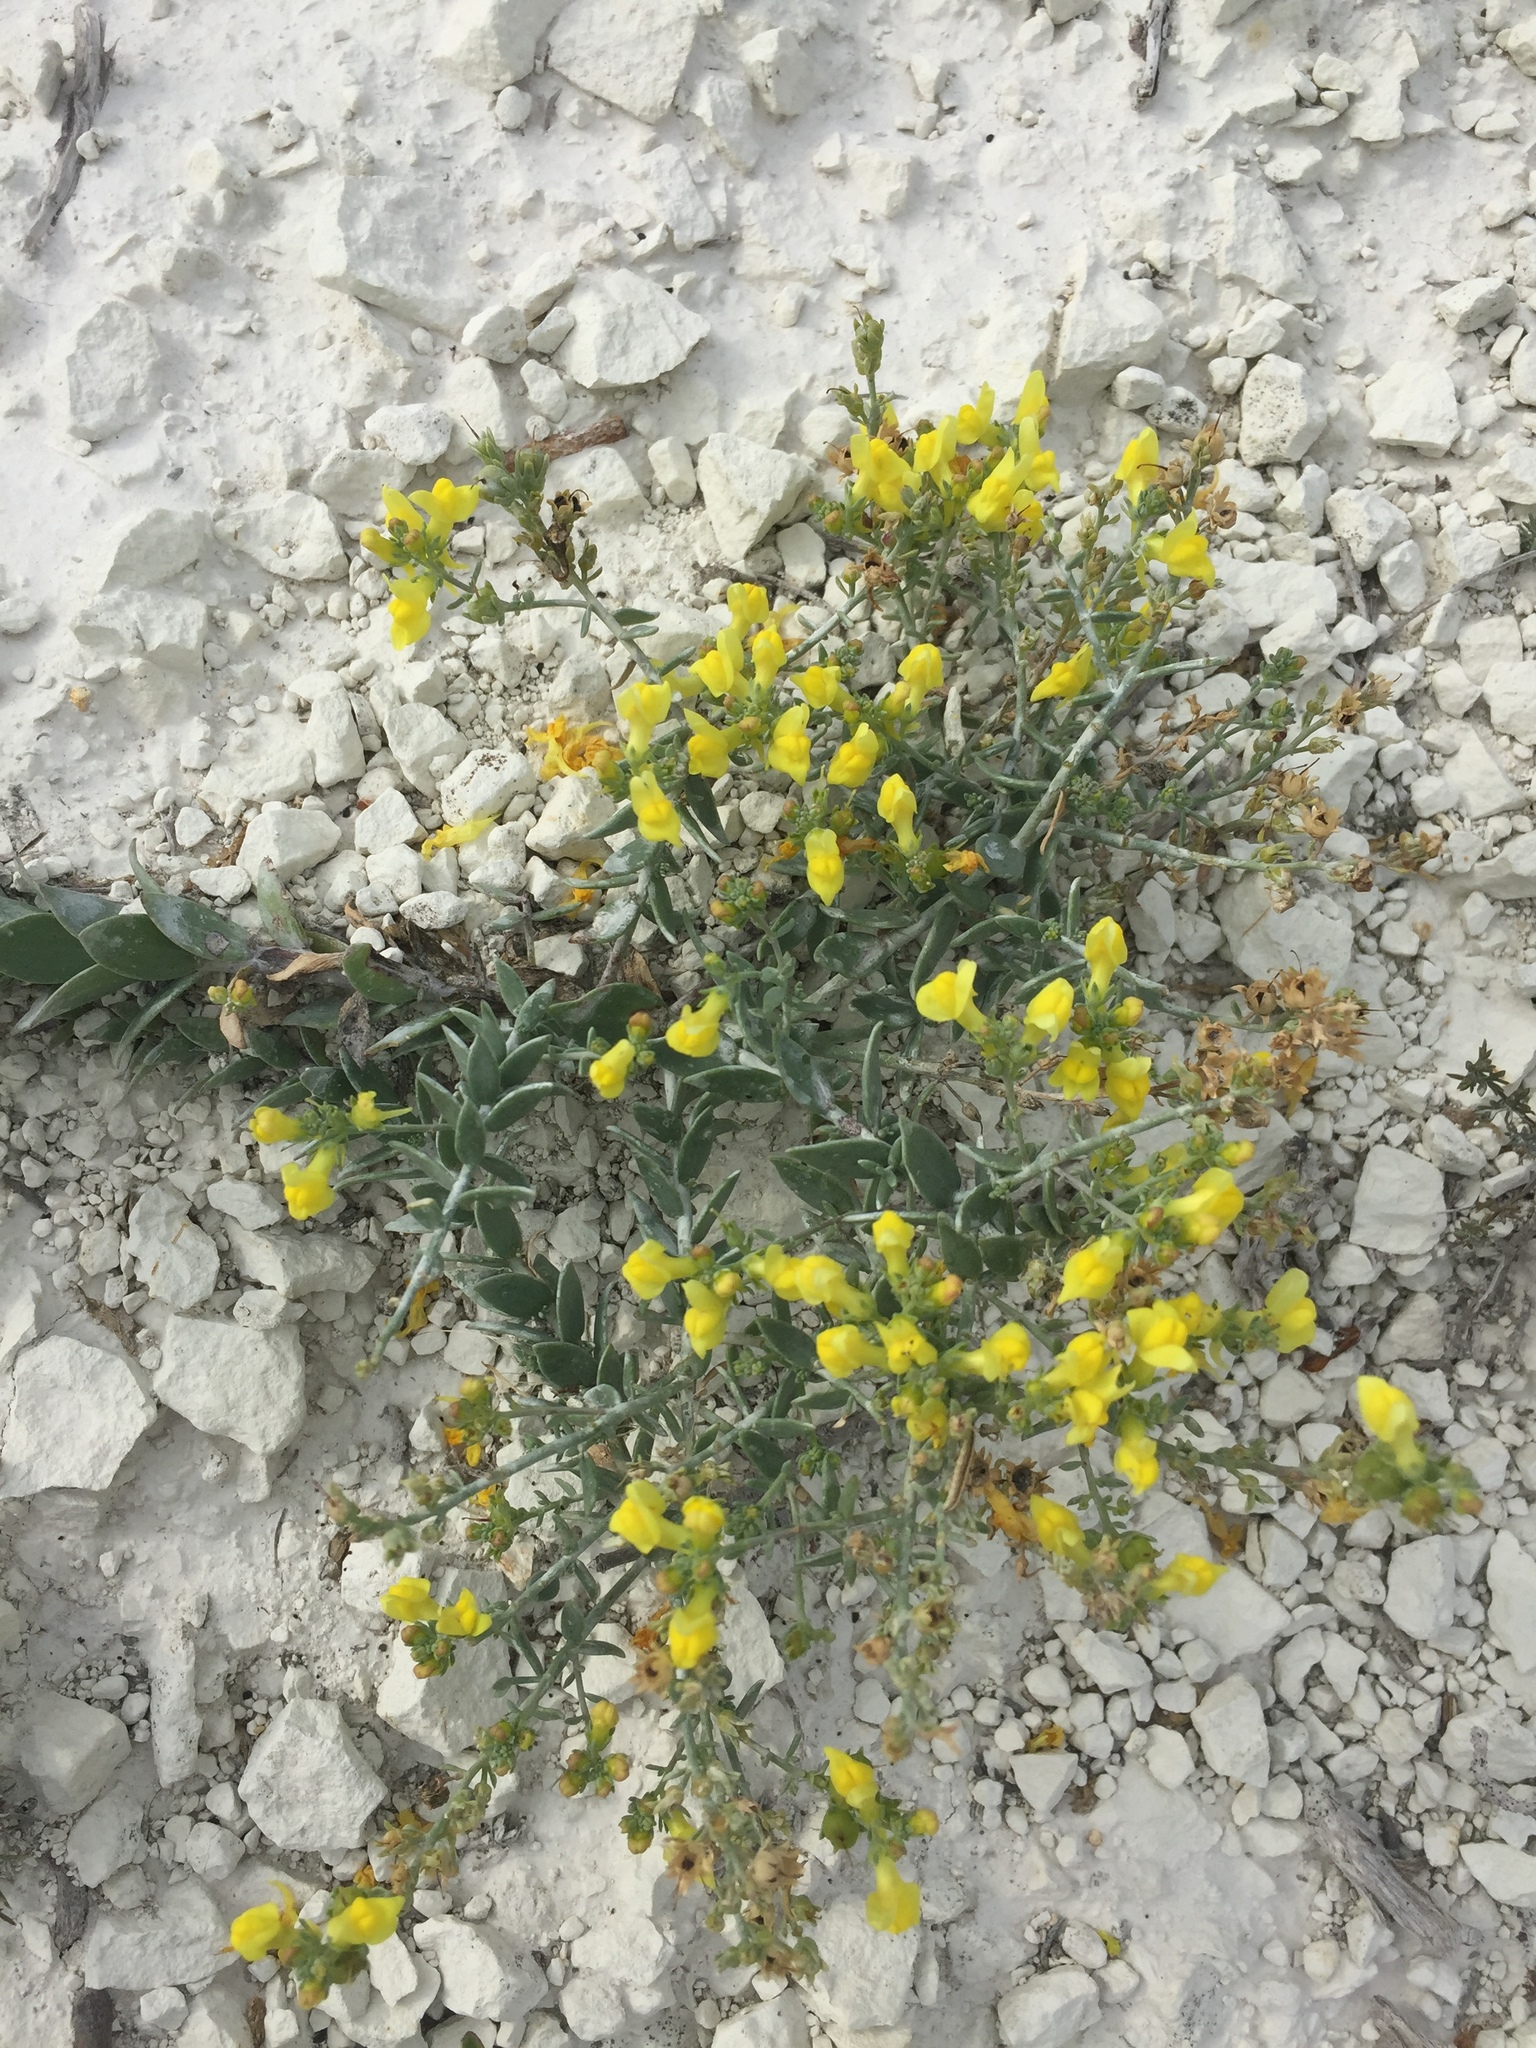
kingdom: Plantae
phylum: Tracheophyta
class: Magnoliopsida
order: Lamiales
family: Plantaginaceae
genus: Linaria
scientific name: Linaria cretacea
